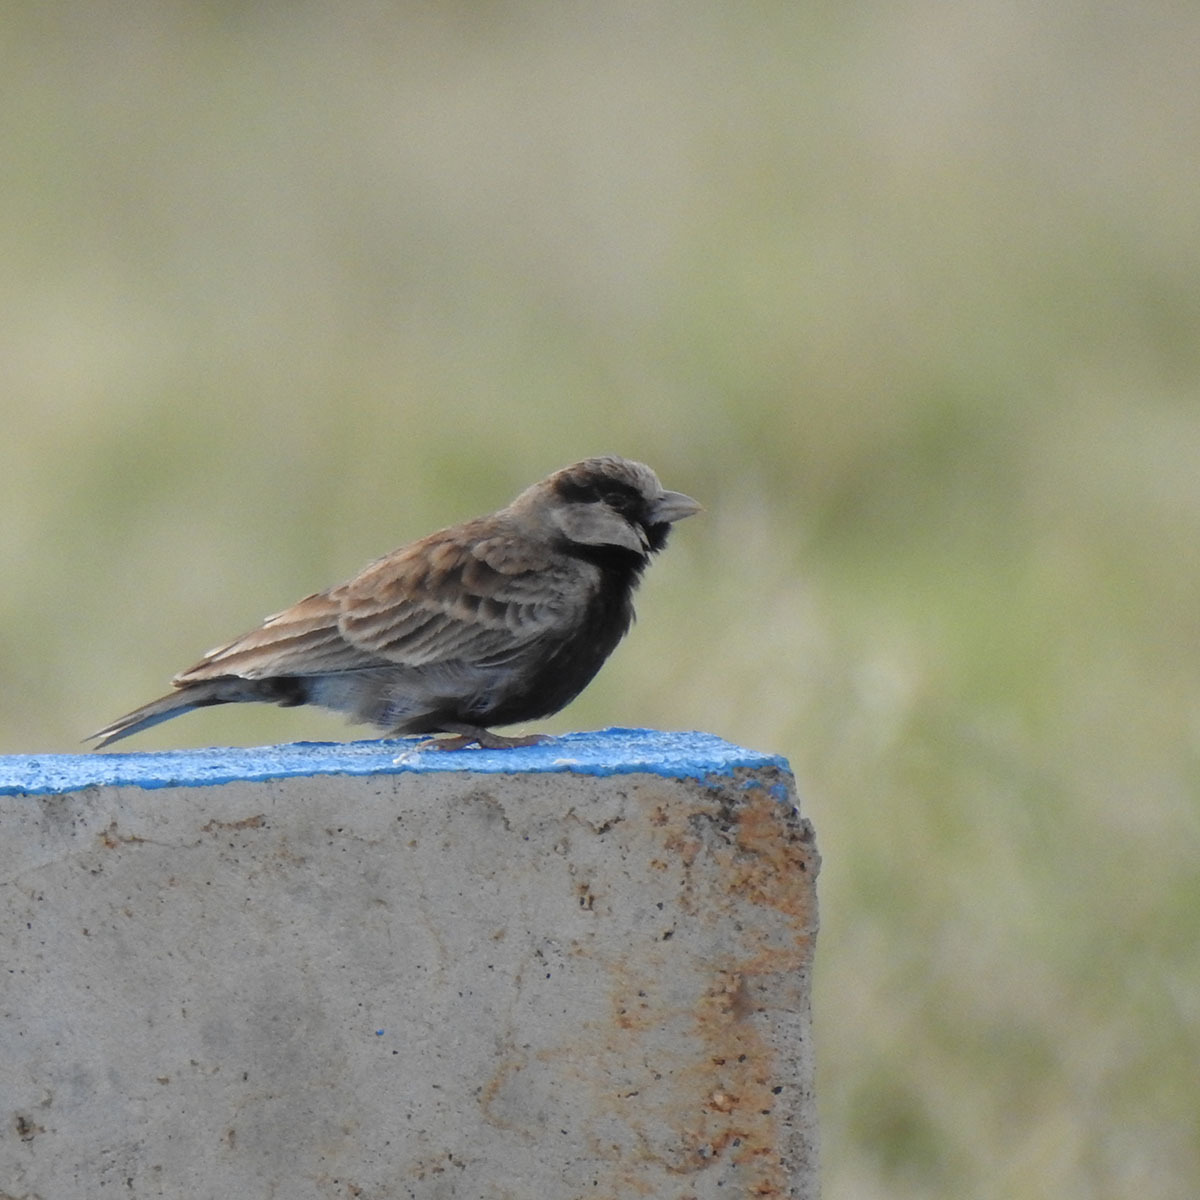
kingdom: Animalia
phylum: Chordata
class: Aves
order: Passeriformes
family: Alaudidae
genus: Eremopterix
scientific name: Eremopterix griseus
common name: Ashy-crowned sparrow-lark
